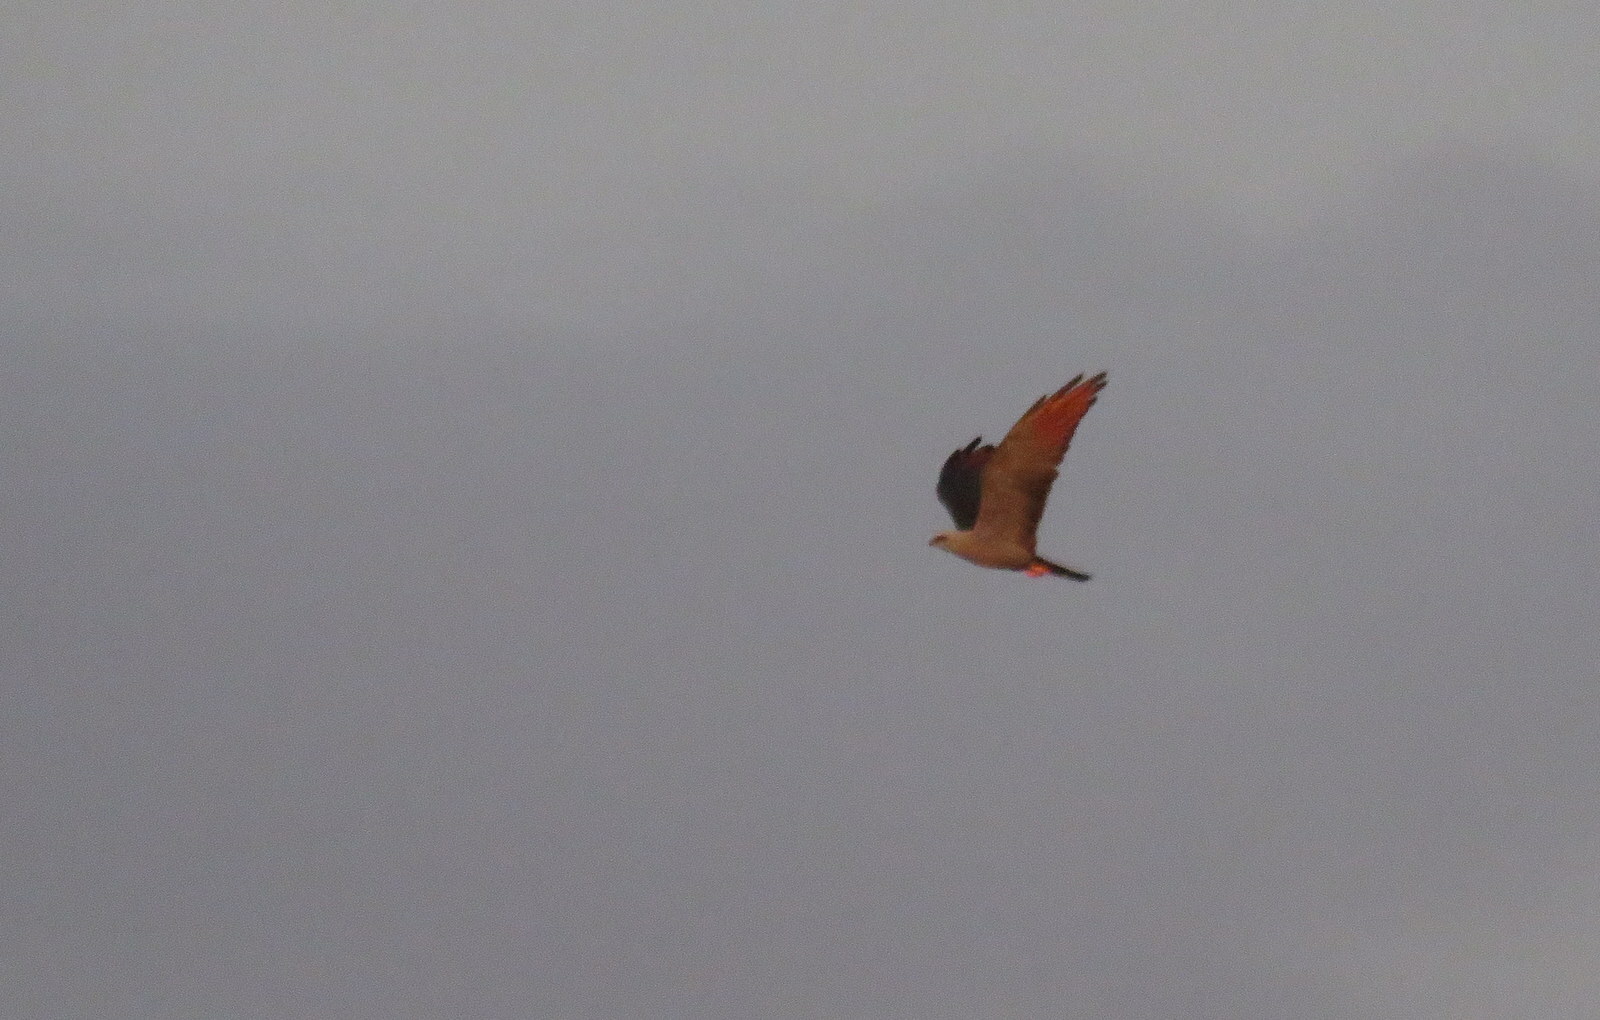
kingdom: Animalia
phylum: Chordata
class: Aves
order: Accipitriformes
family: Accipitridae
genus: Ictinia
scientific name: Ictinia plumbea
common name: Plumbeous kite
